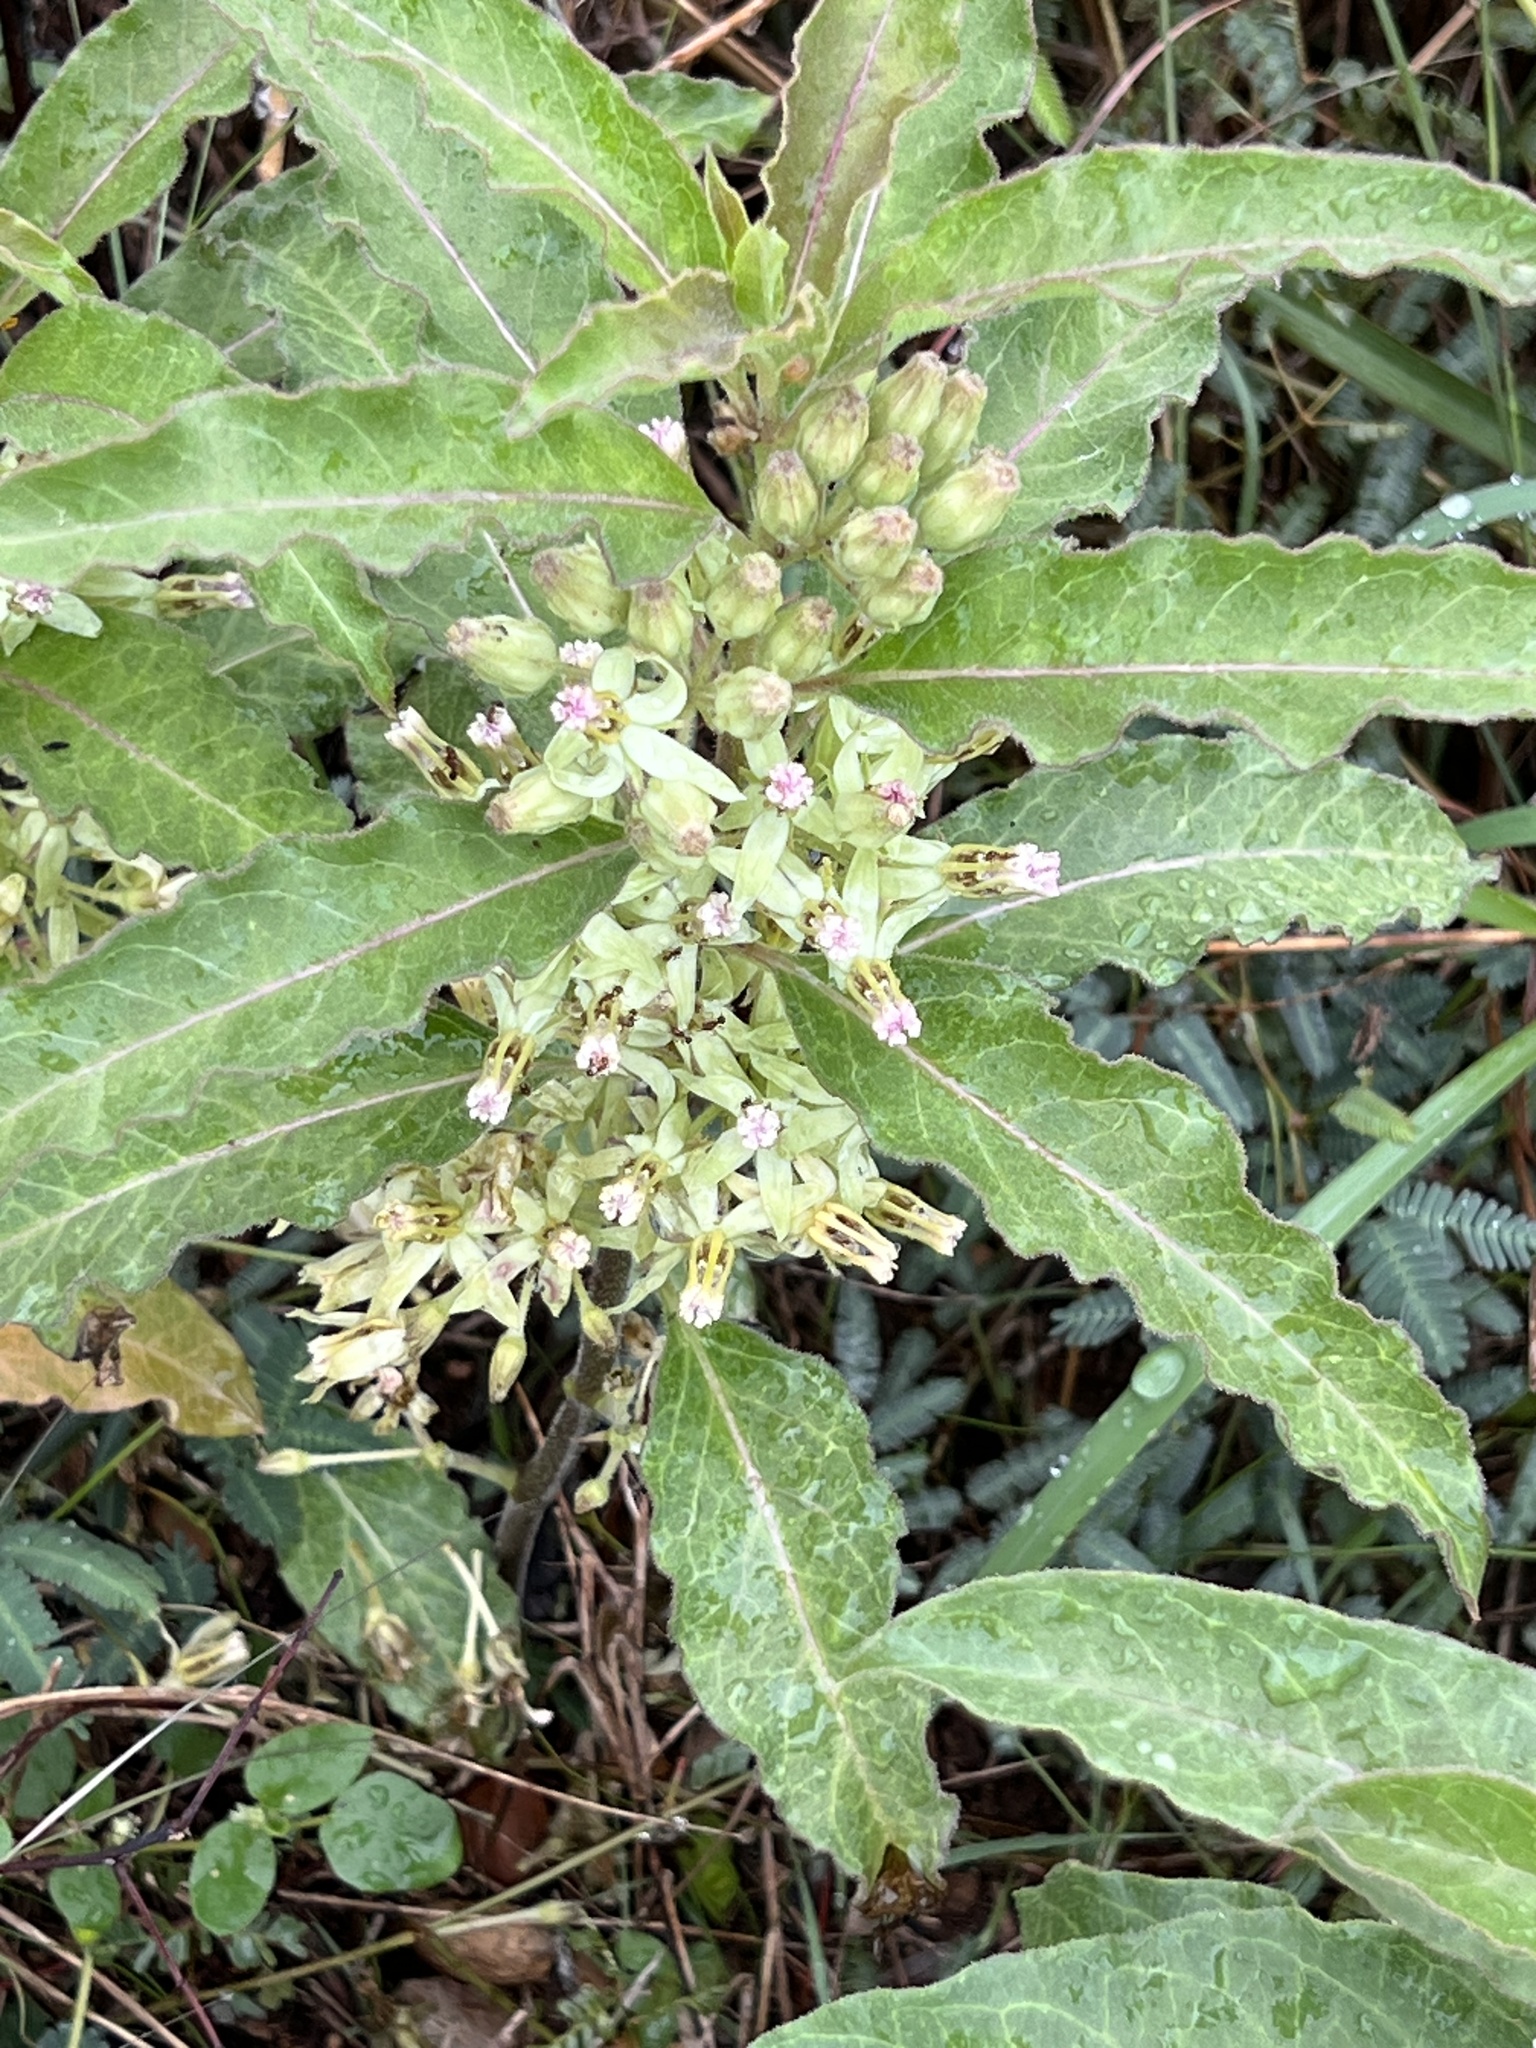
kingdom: Plantae
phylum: Tracheophyta
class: Magnoliopsida
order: Gentianales
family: Apocynaceae
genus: Asclepias
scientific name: Asclepias oenotheroides
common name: Zizotes milkweed
